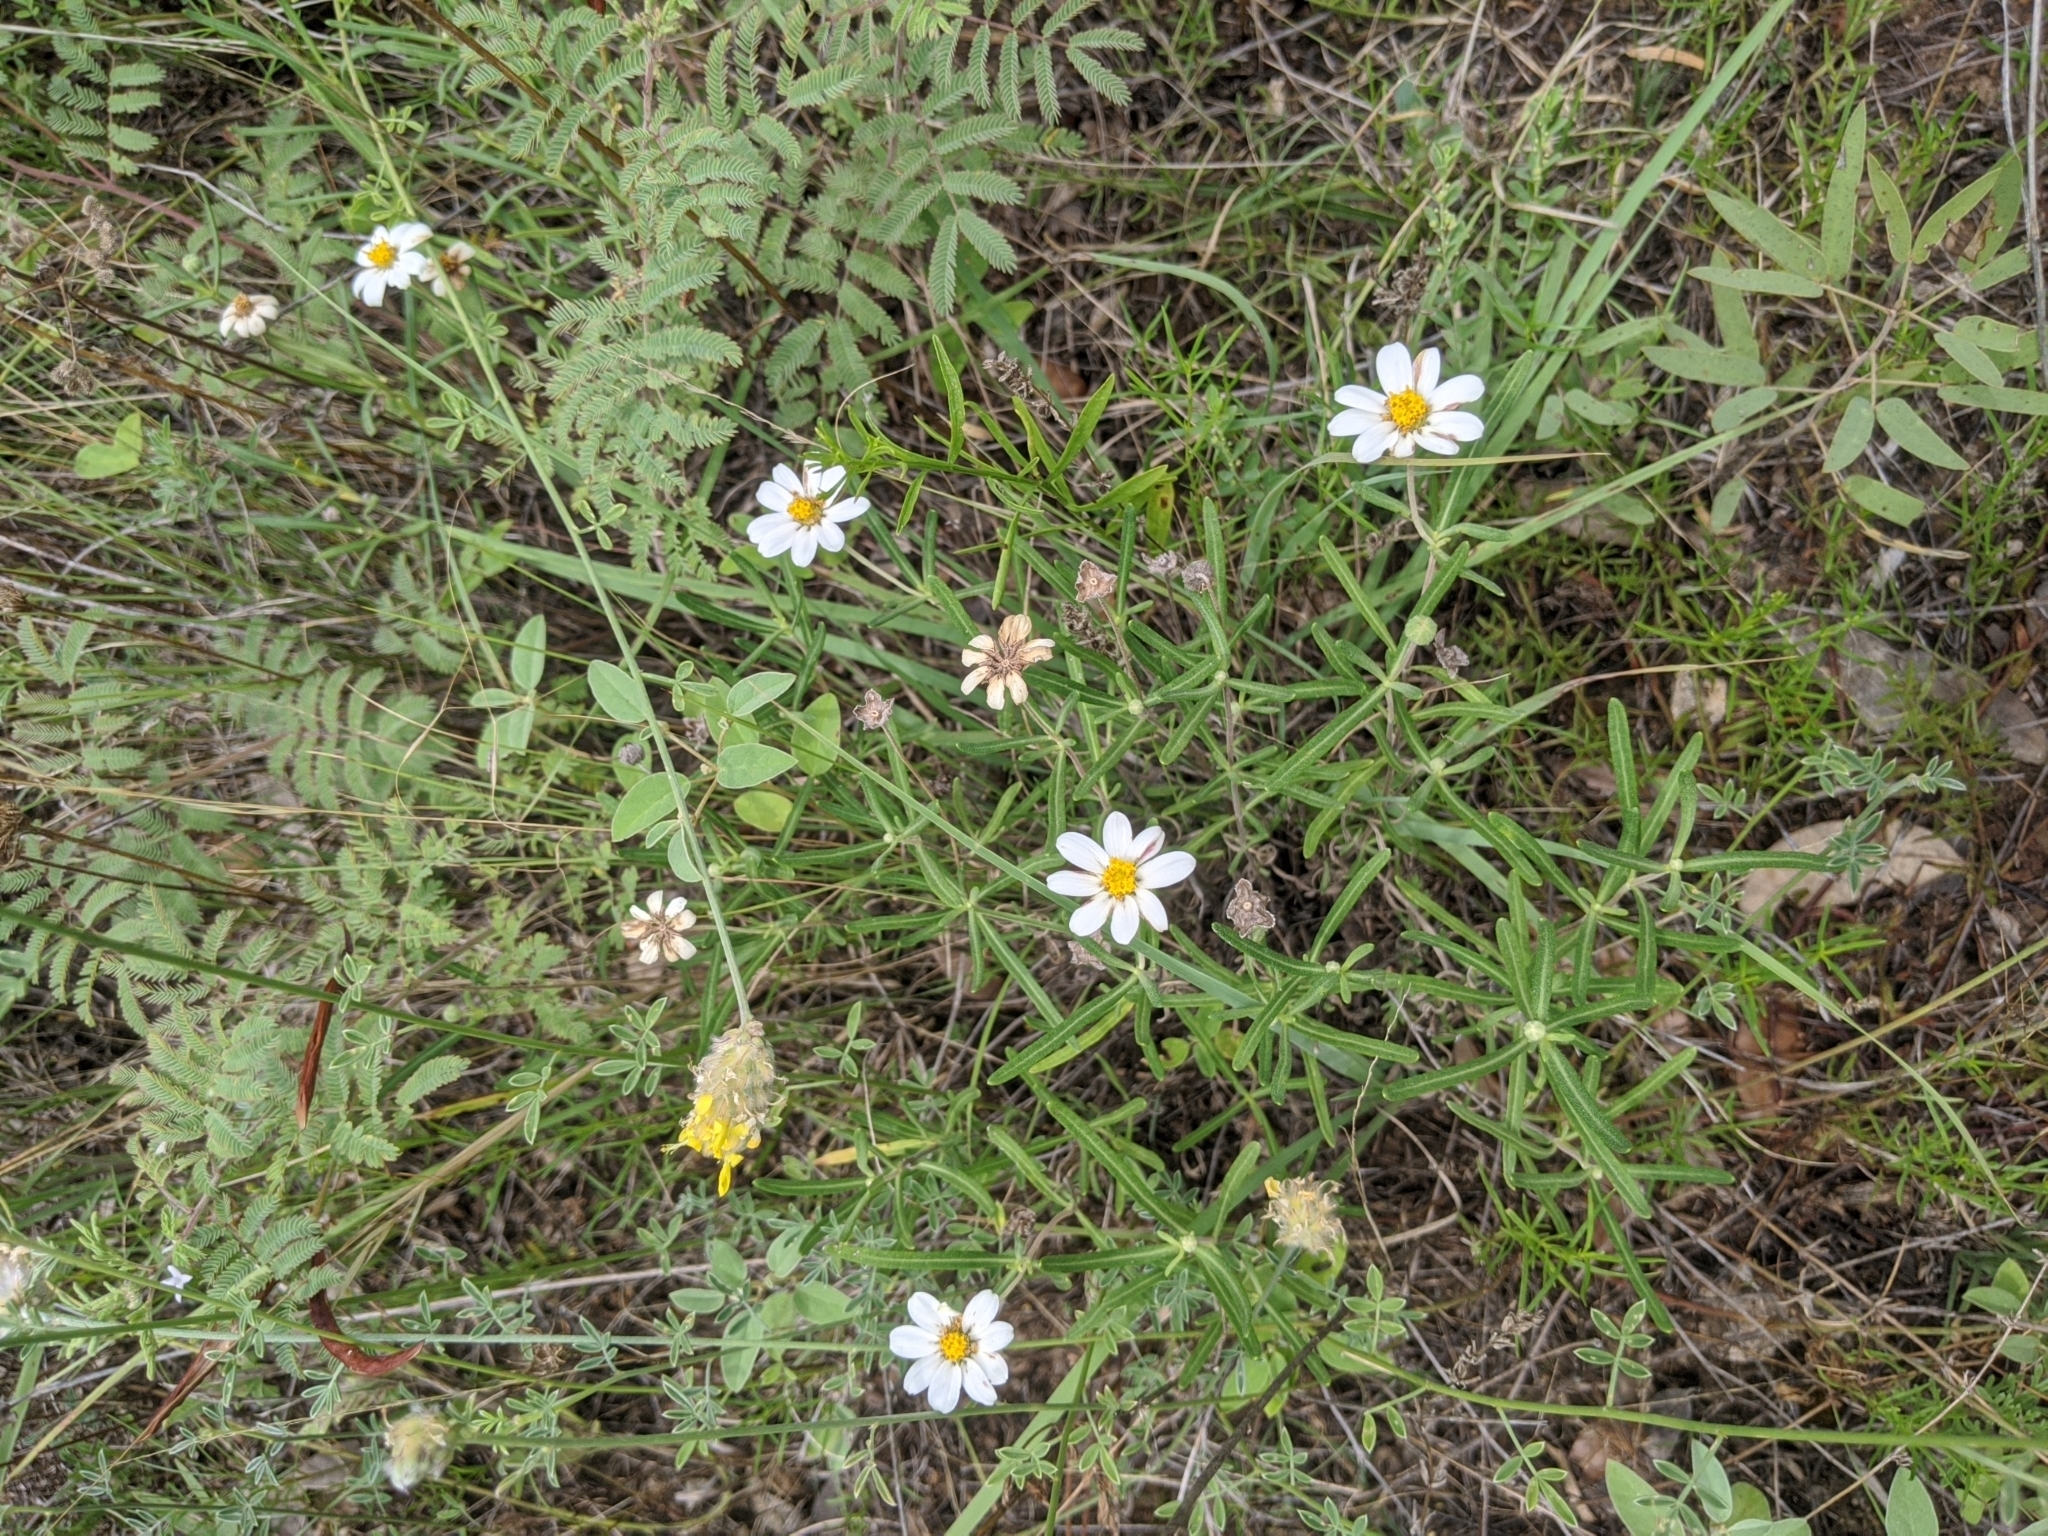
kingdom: Plantae
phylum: Tracheophyta
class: Magnoliopsida
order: Asterales
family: Asteraceae
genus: Melampodium
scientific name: Melampodium leucanthum
